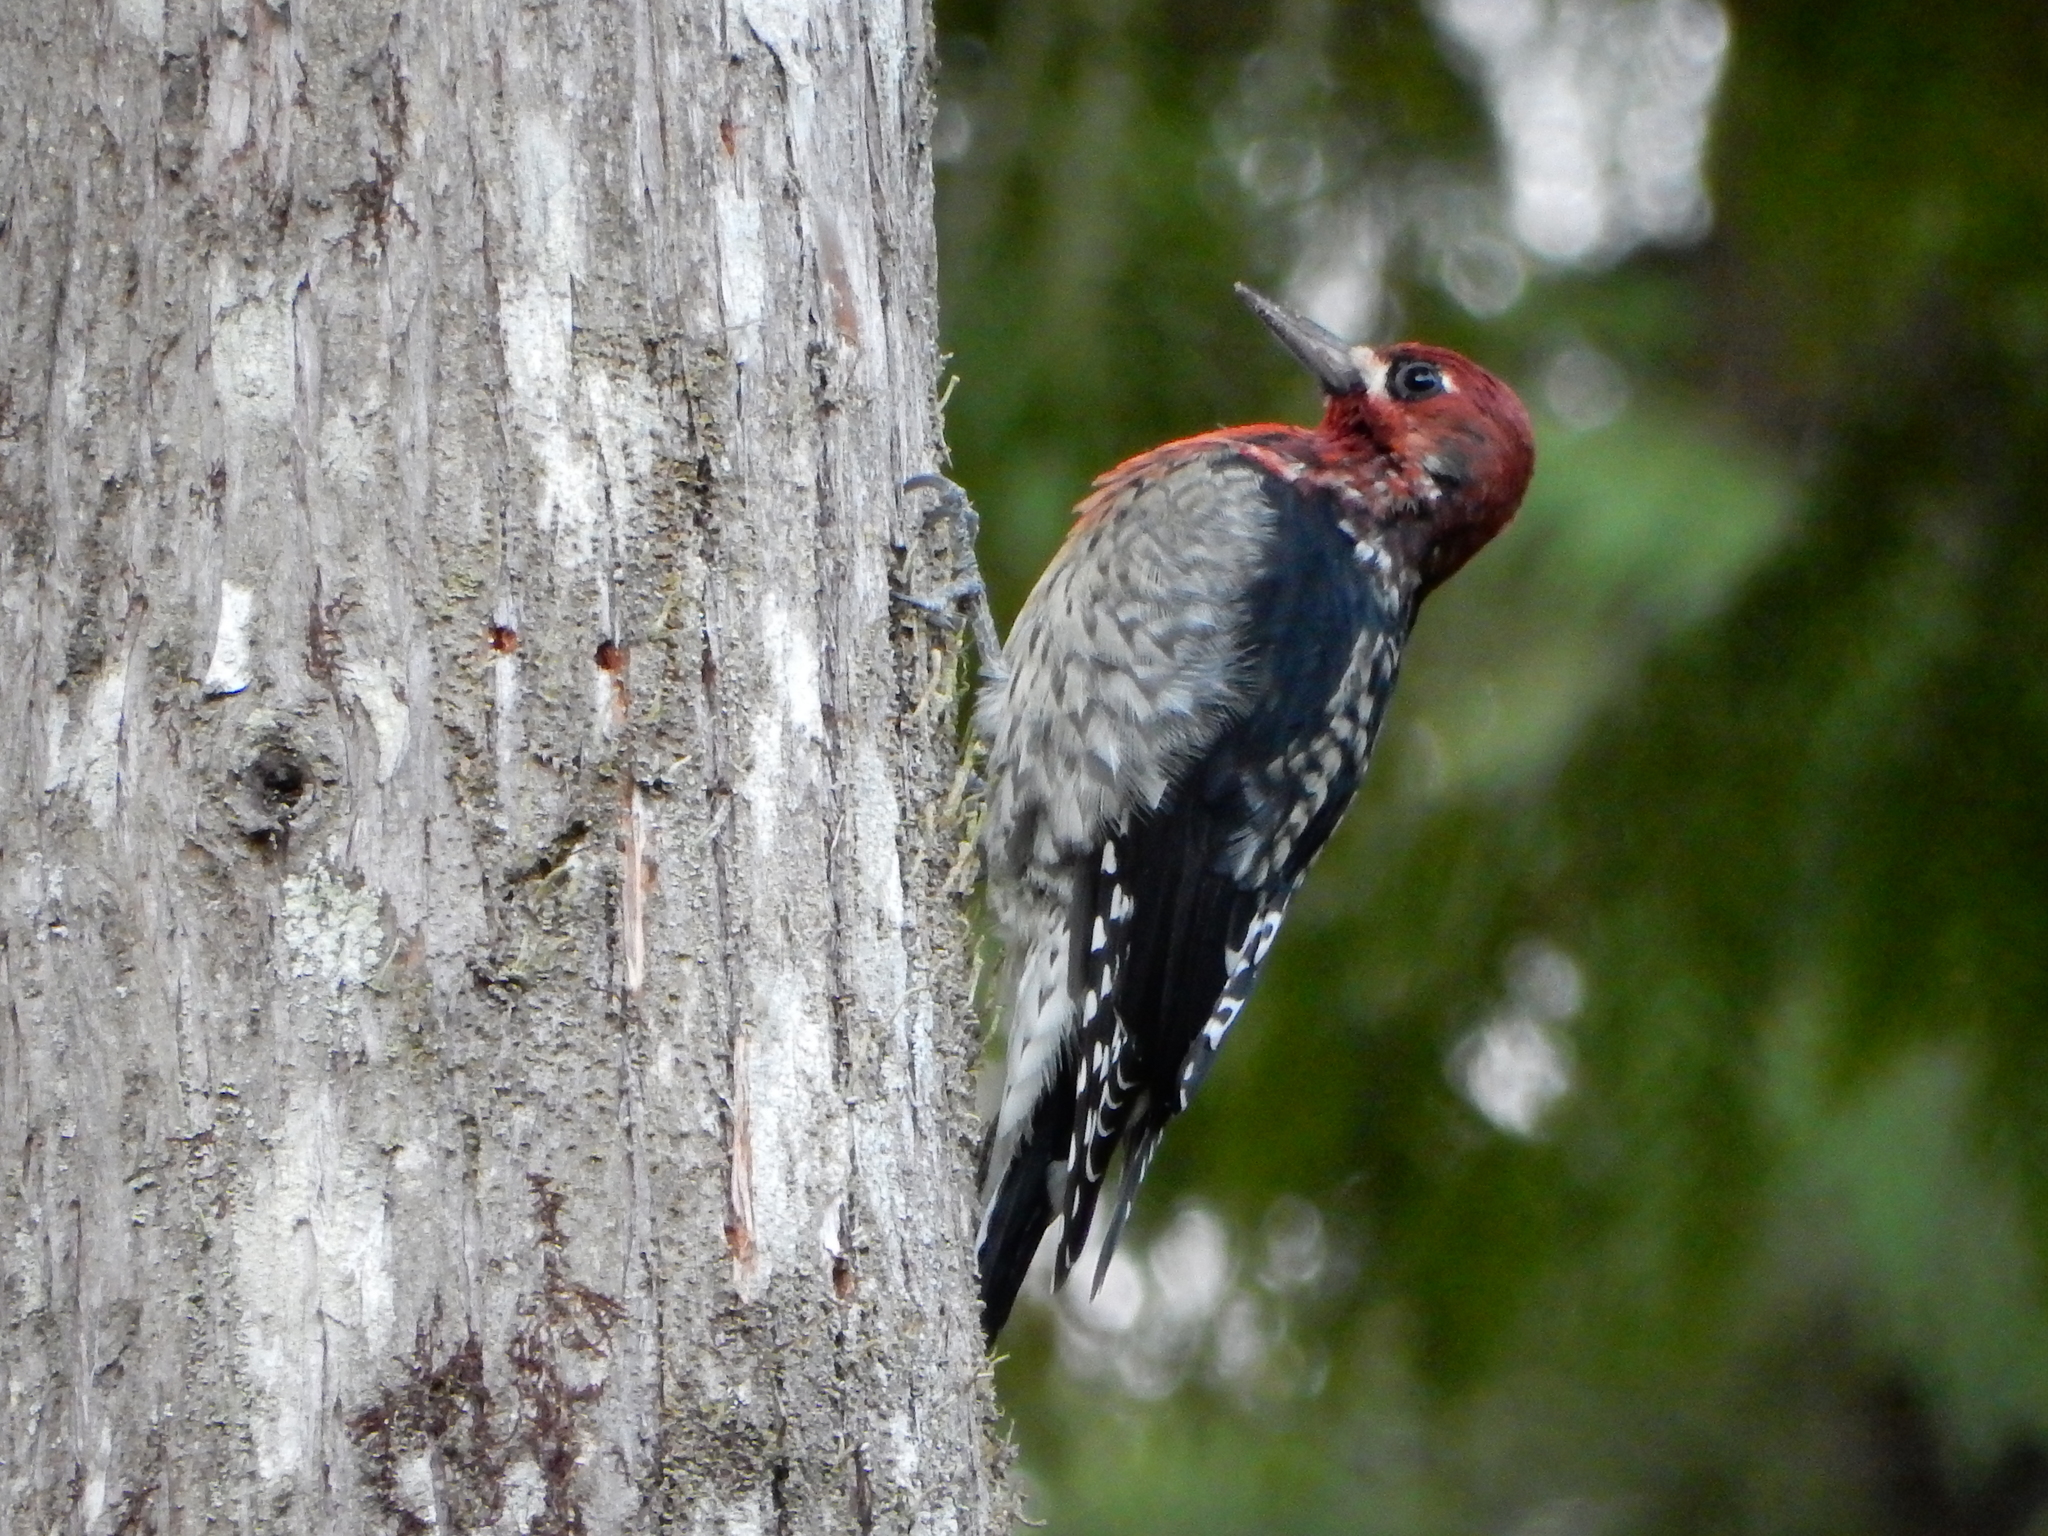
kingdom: Animalia
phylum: Chordata
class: Aves
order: Piciformes
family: Picidae
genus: Sphyrapicus
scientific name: Sphyrapicus ruber
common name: Red-breasted sapsucker
